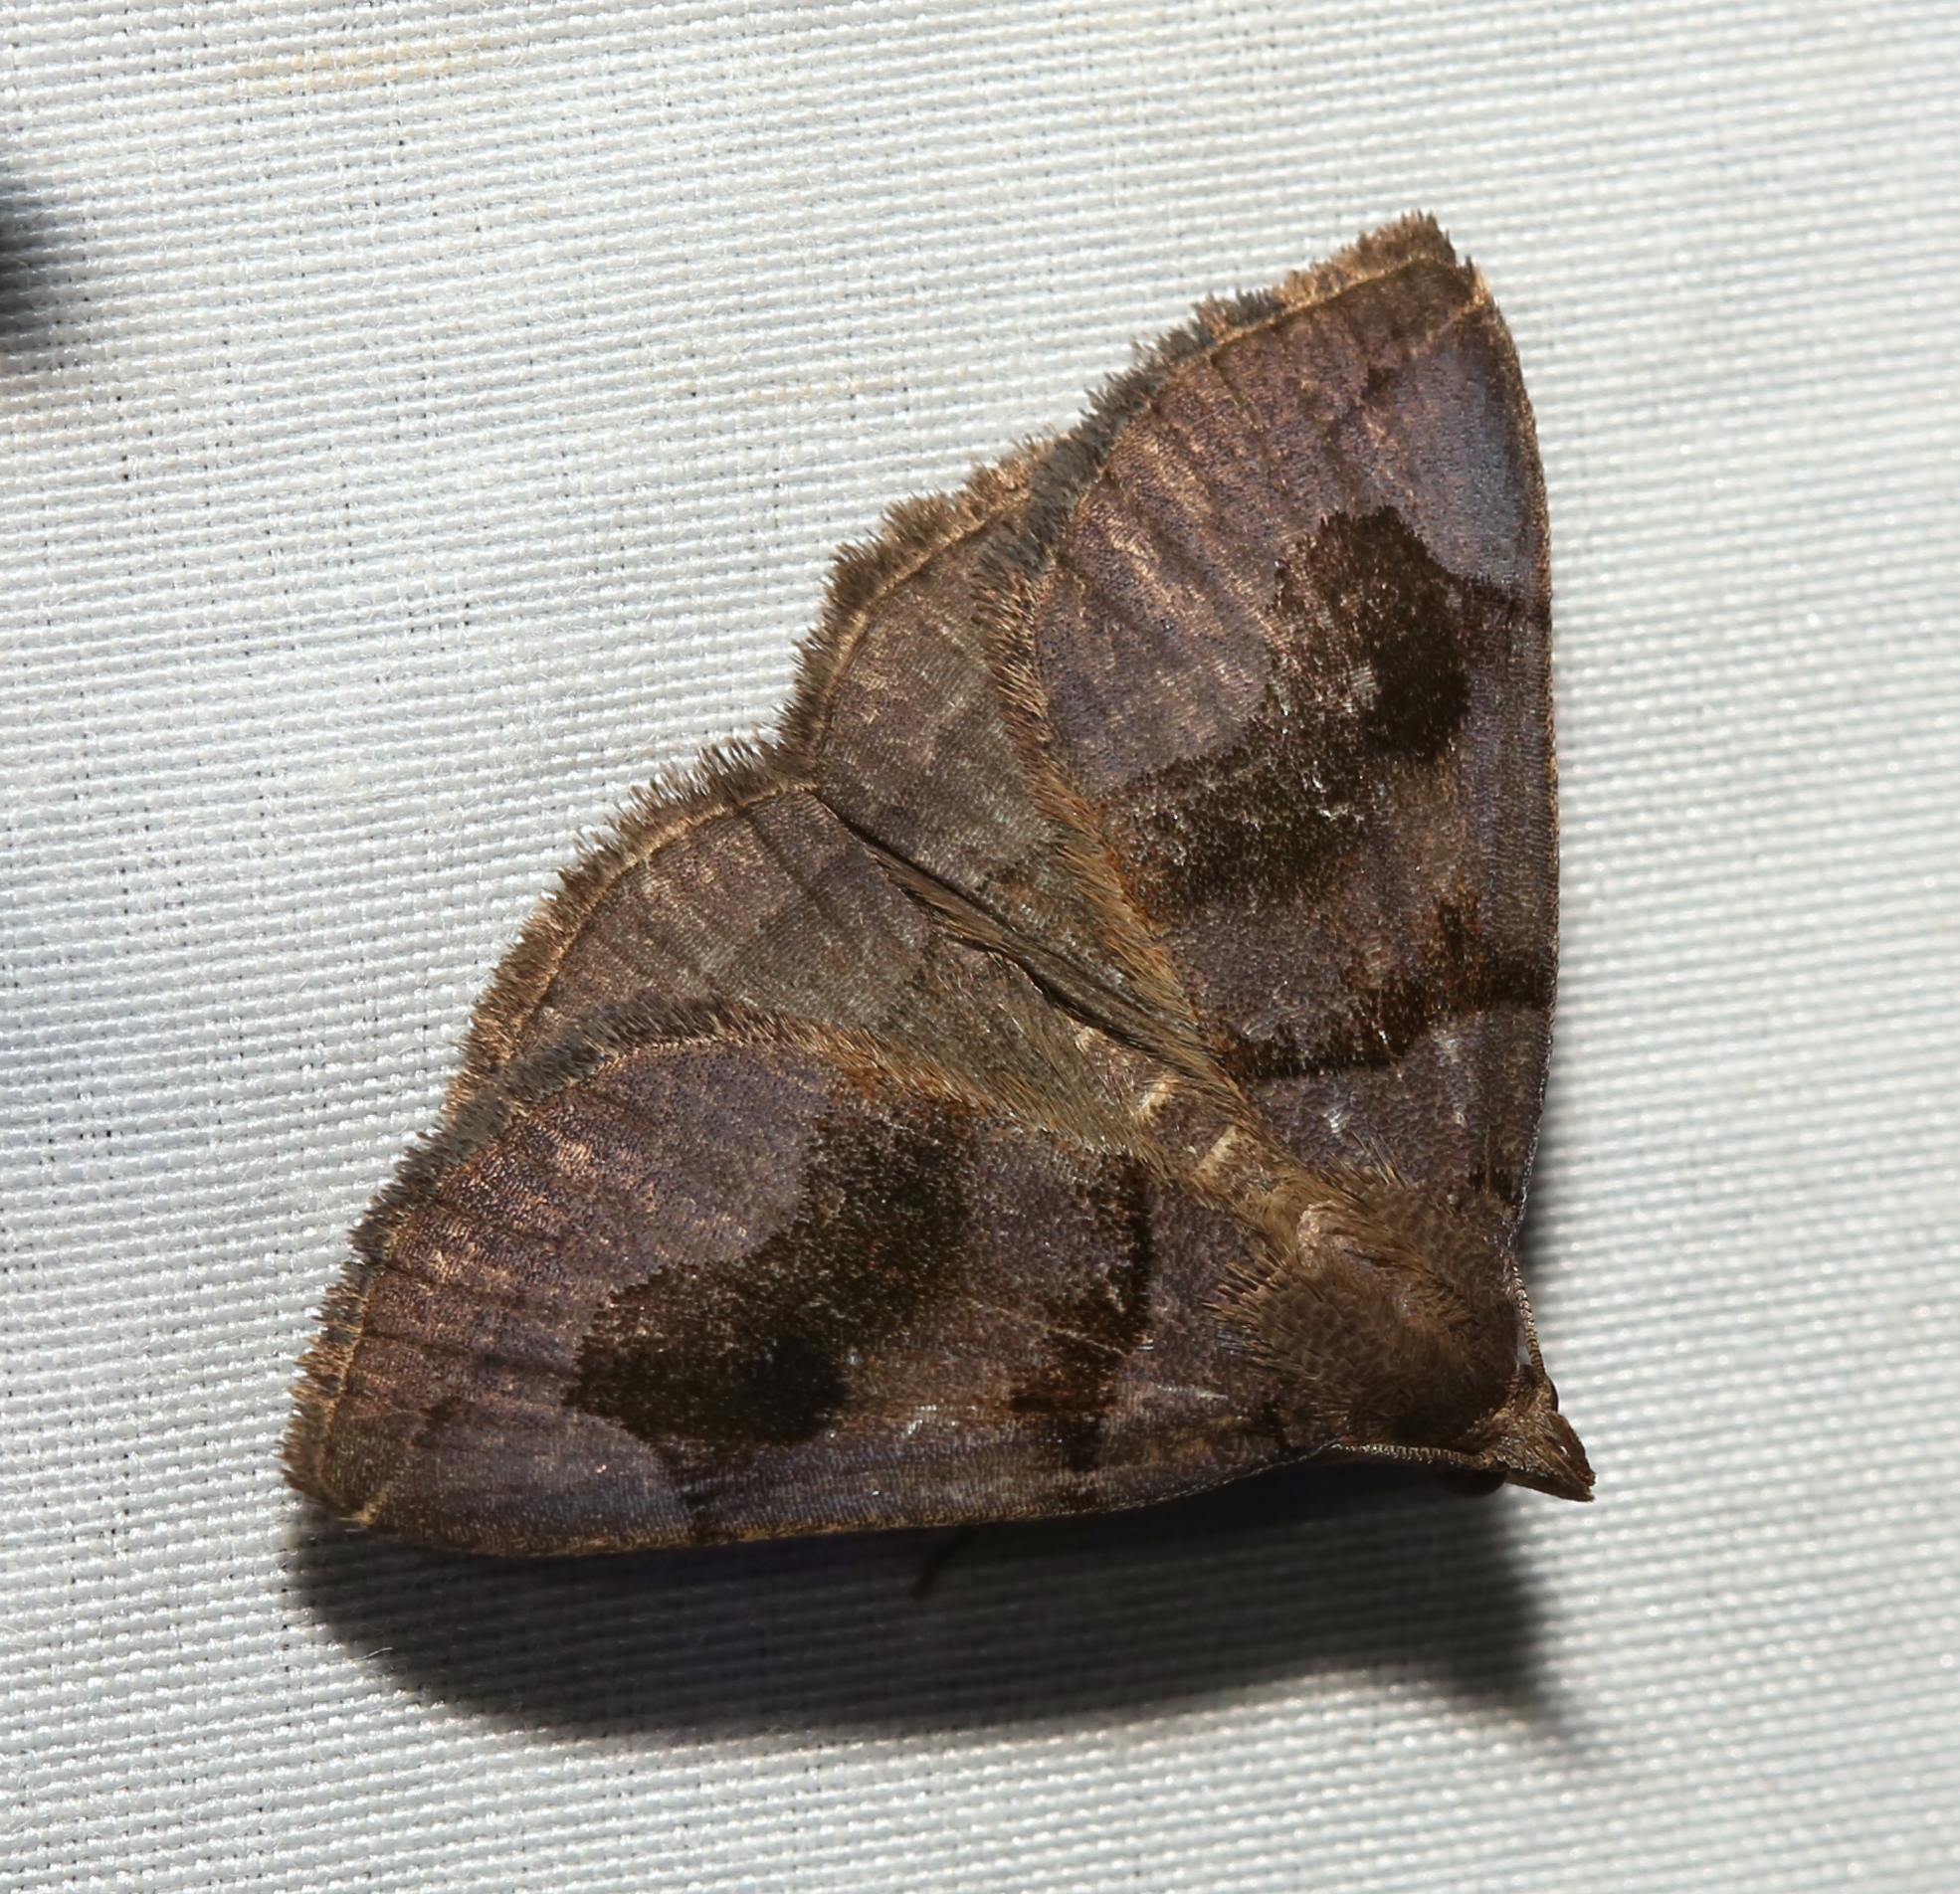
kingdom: Animalia
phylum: Arthropoda
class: Insecta
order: Lepidoptera
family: Erebidae
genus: Zanclognatha
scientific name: Zanclognatha laevigata
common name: Variable fan-foot
